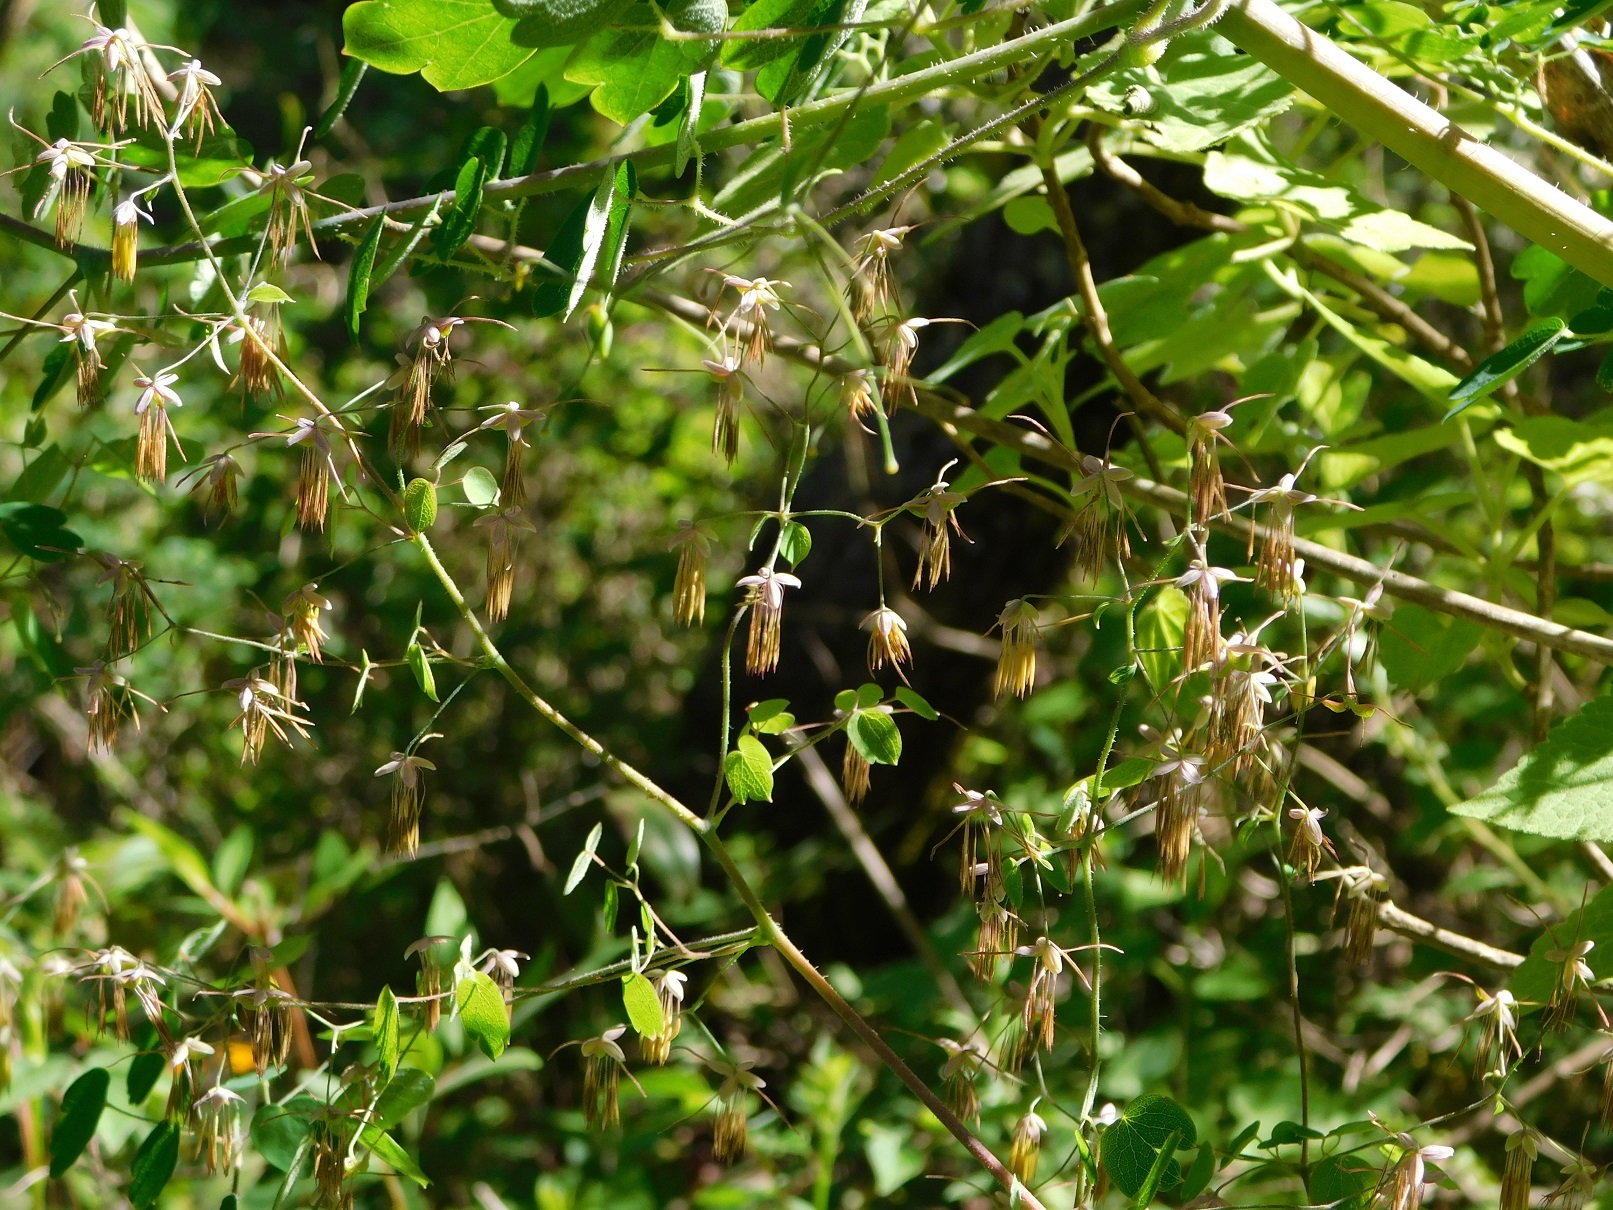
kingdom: Plantae
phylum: Tracheophyta
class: Magnoliopsida
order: Ranunculales
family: Ranunculaceae
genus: Thalictrum
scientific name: Thalictrum guatemalense
